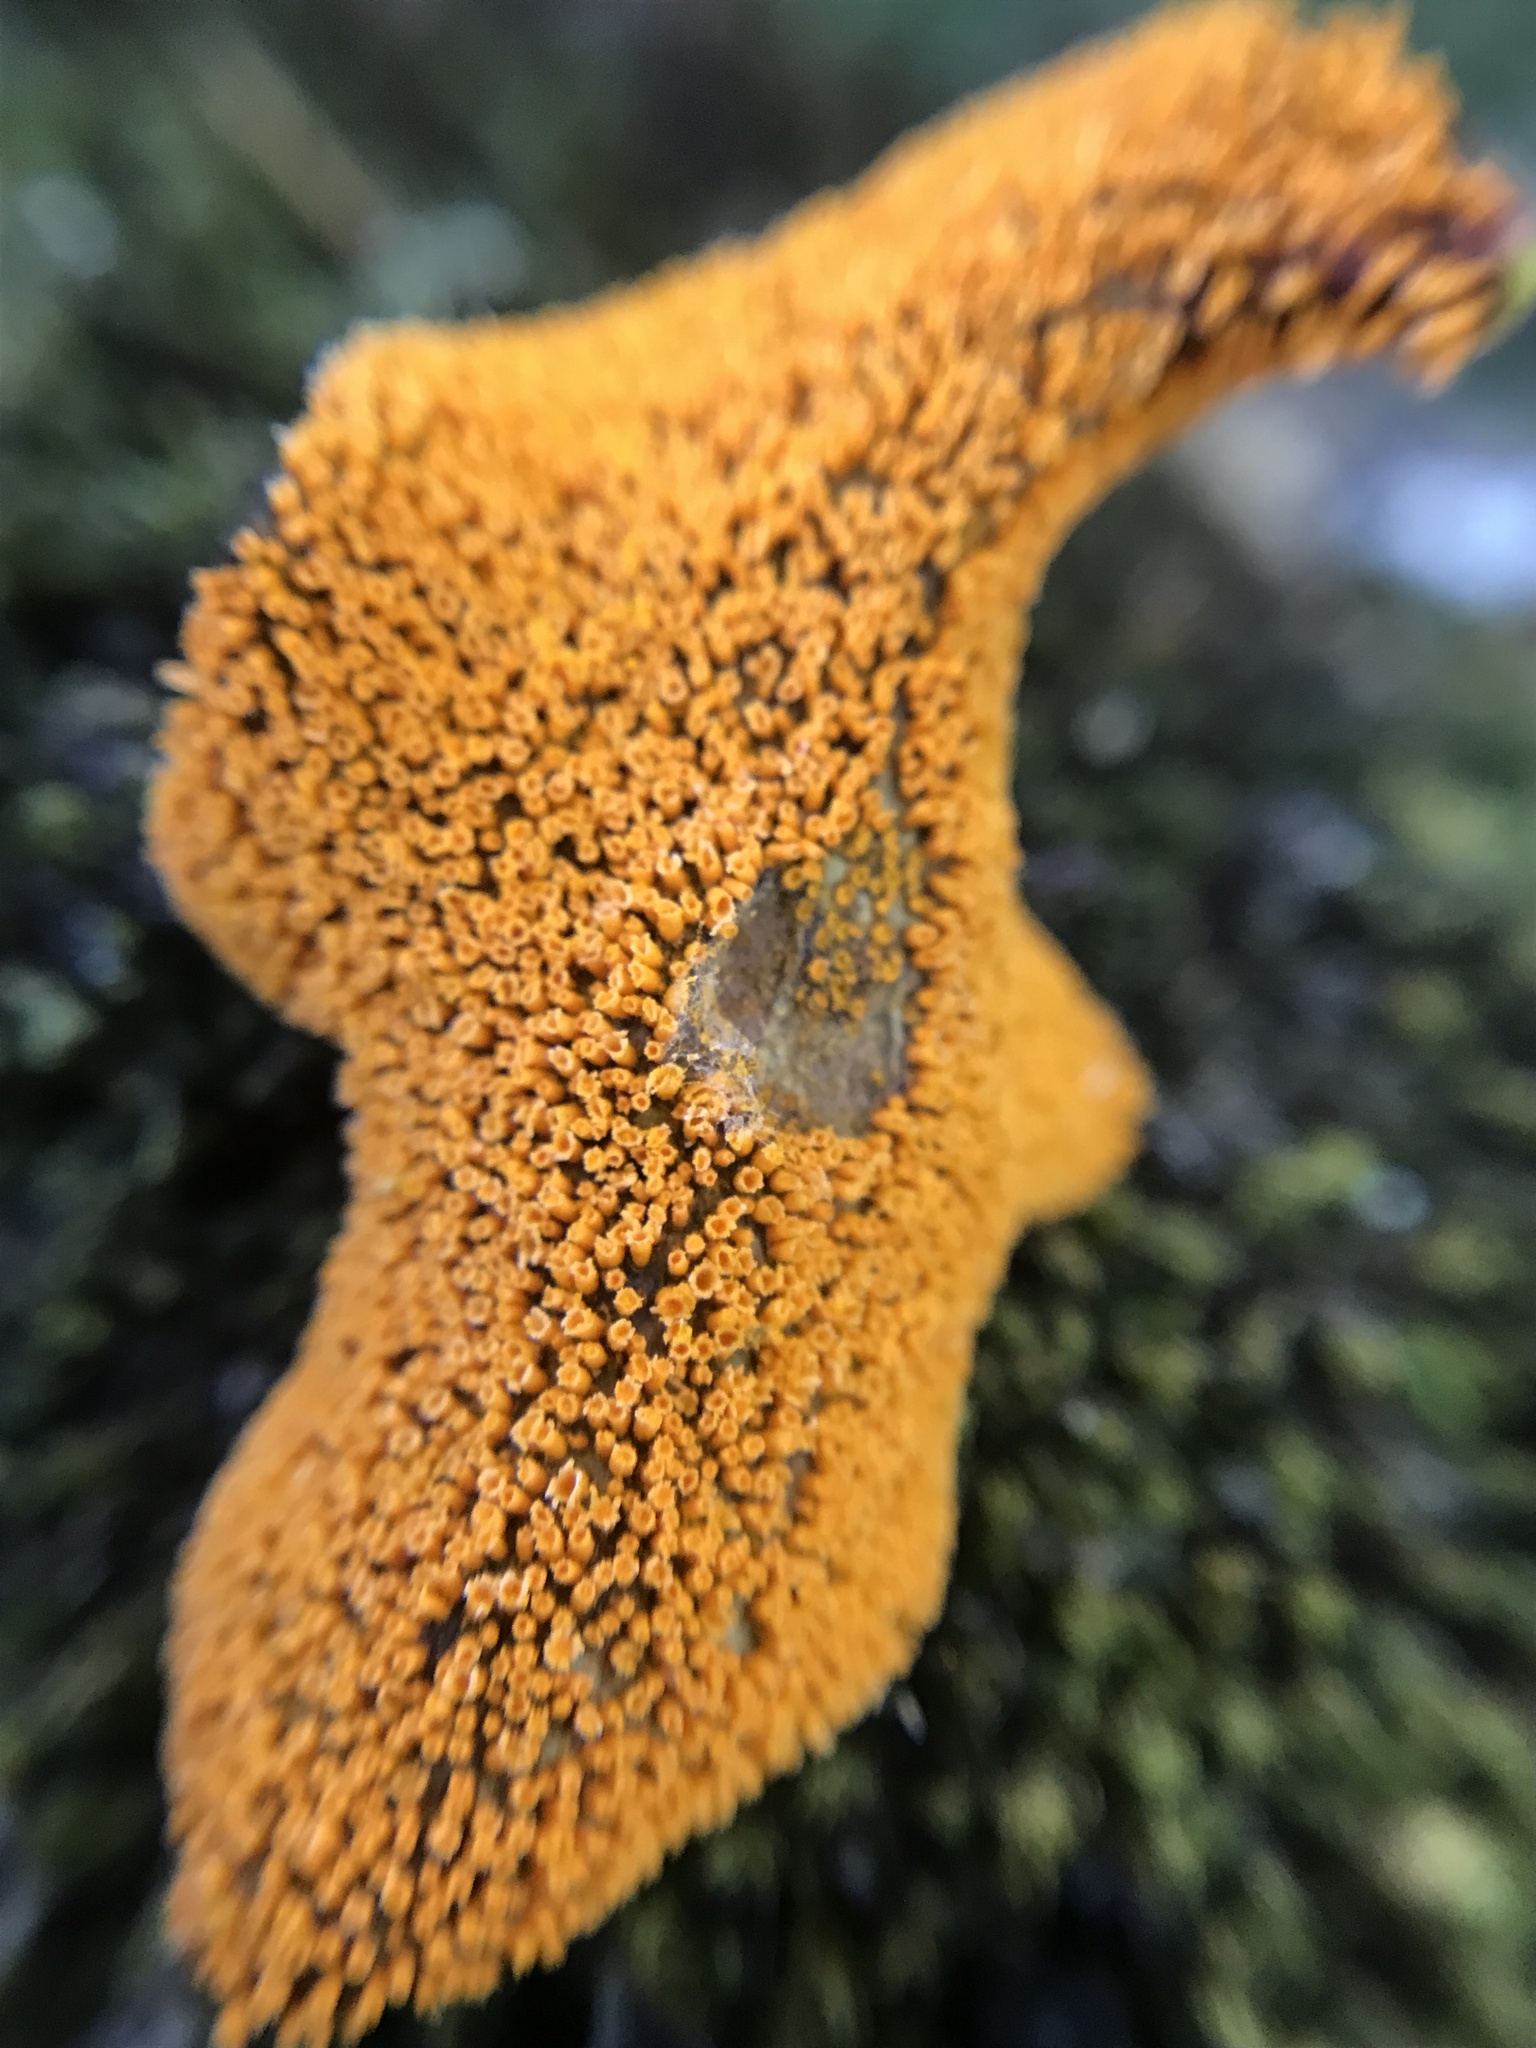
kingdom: Fungi
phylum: Basidiomycota
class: Pucciniomycetes
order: Pucciniales
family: Pucciniaceae
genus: Puccinia
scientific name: Puccinia magellanica
